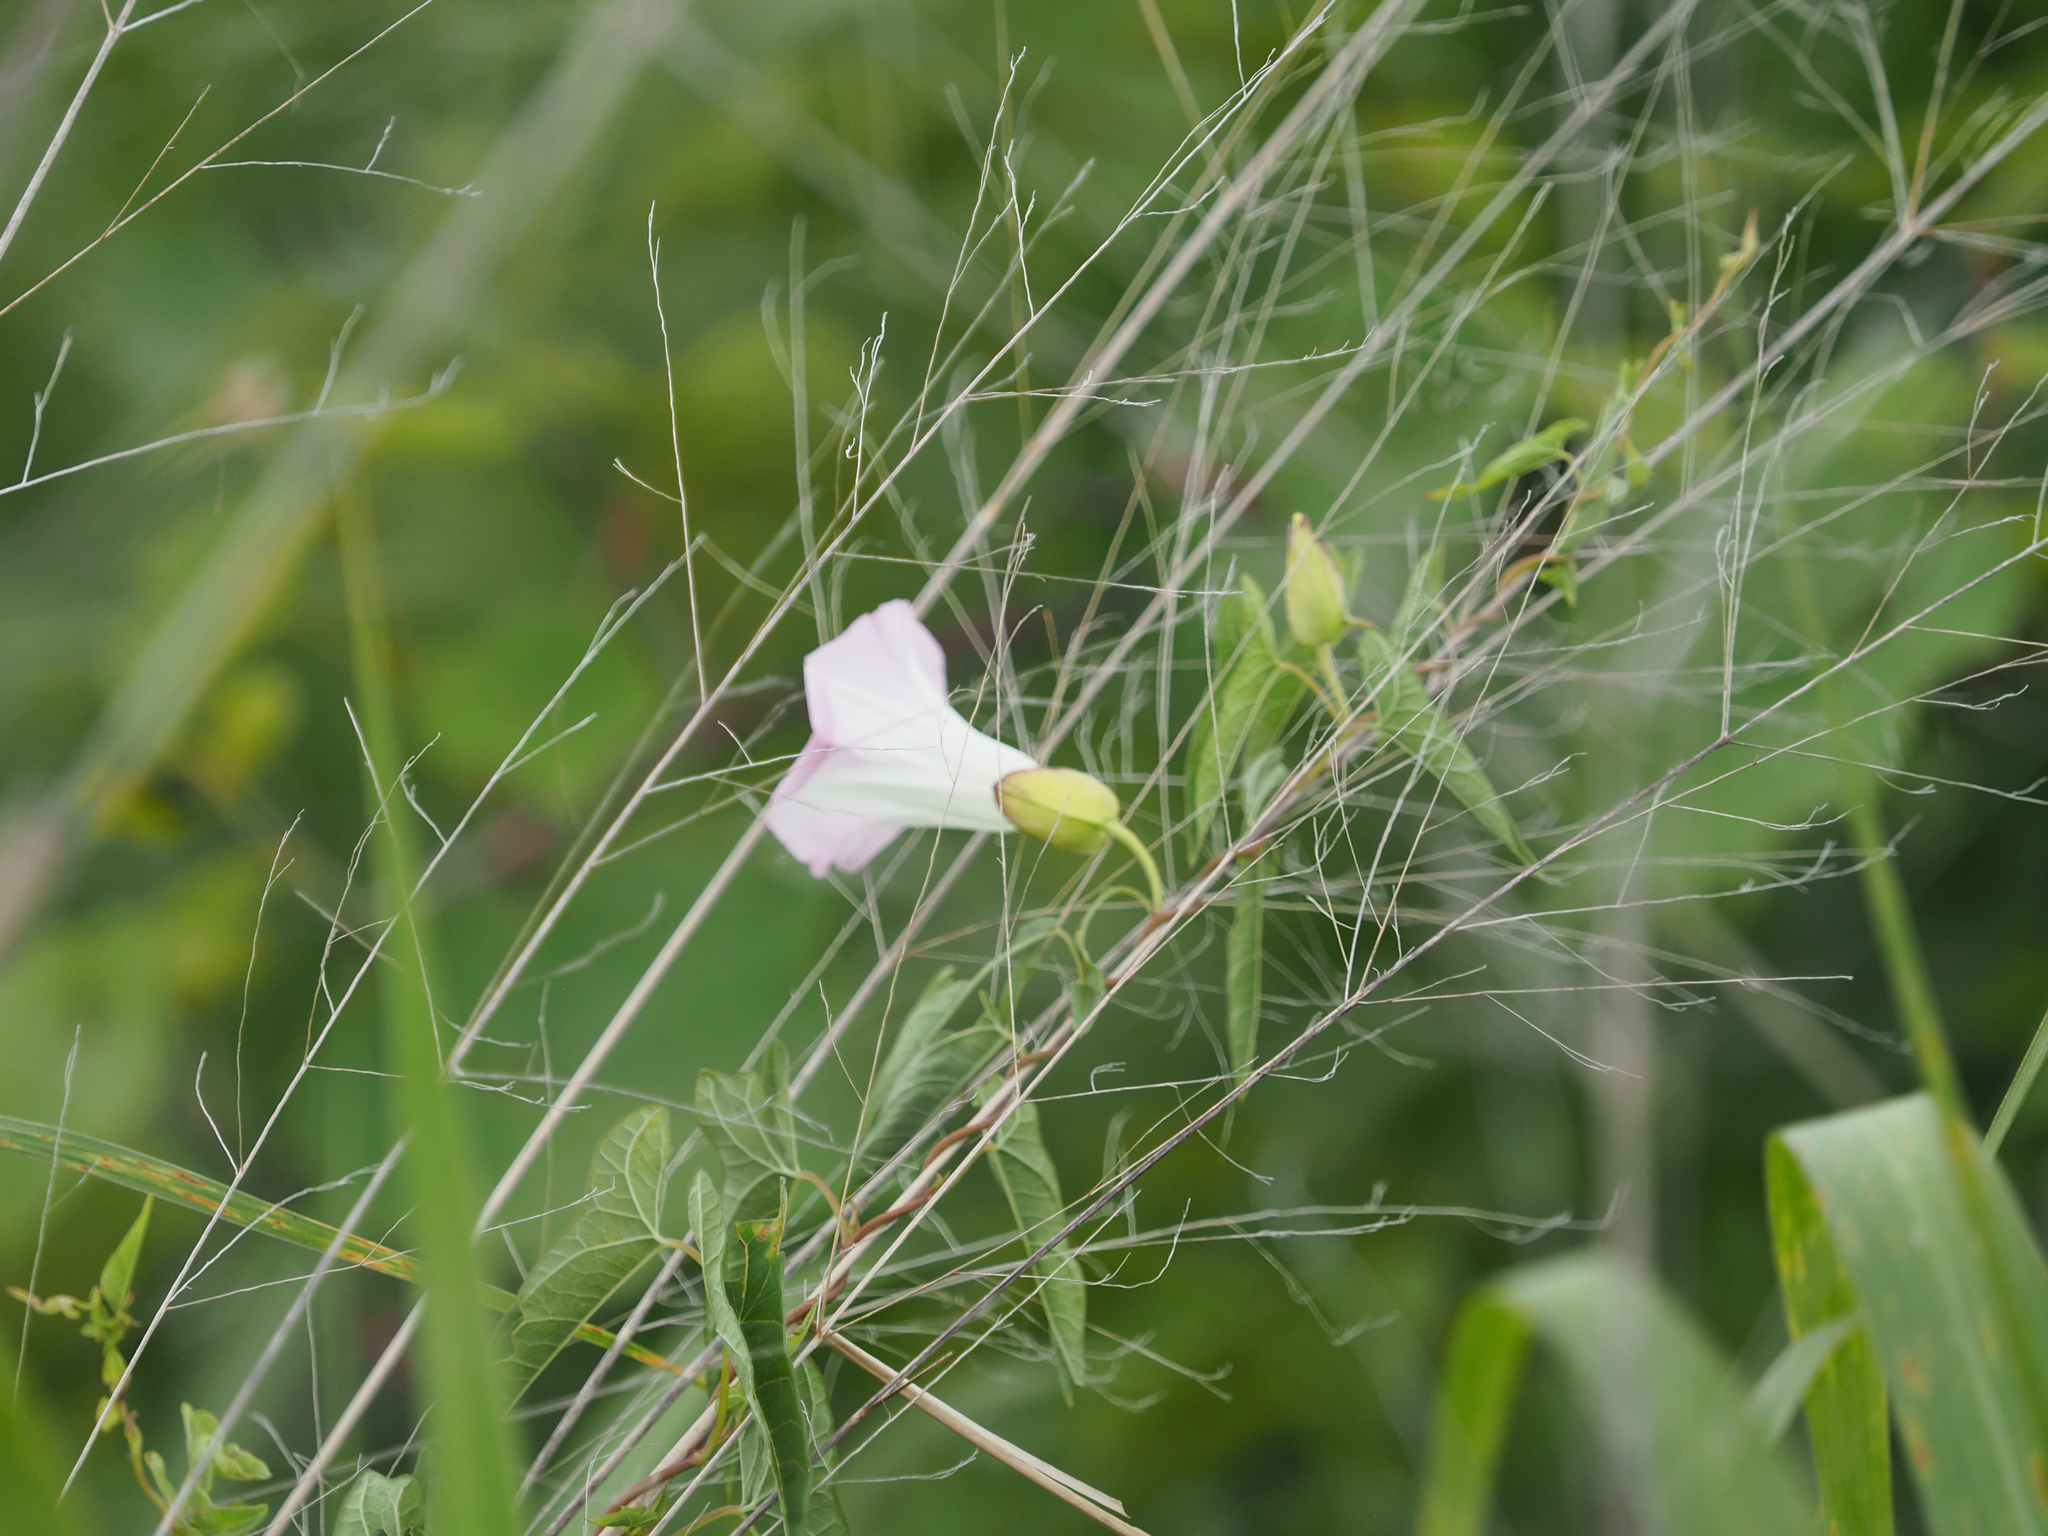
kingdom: Plantae
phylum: Tracheophyta
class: Magnoliopsida
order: Solanales
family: Convolvulaceae
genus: Calystegia
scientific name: Calystegia sepium
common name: Hedge bindweed
